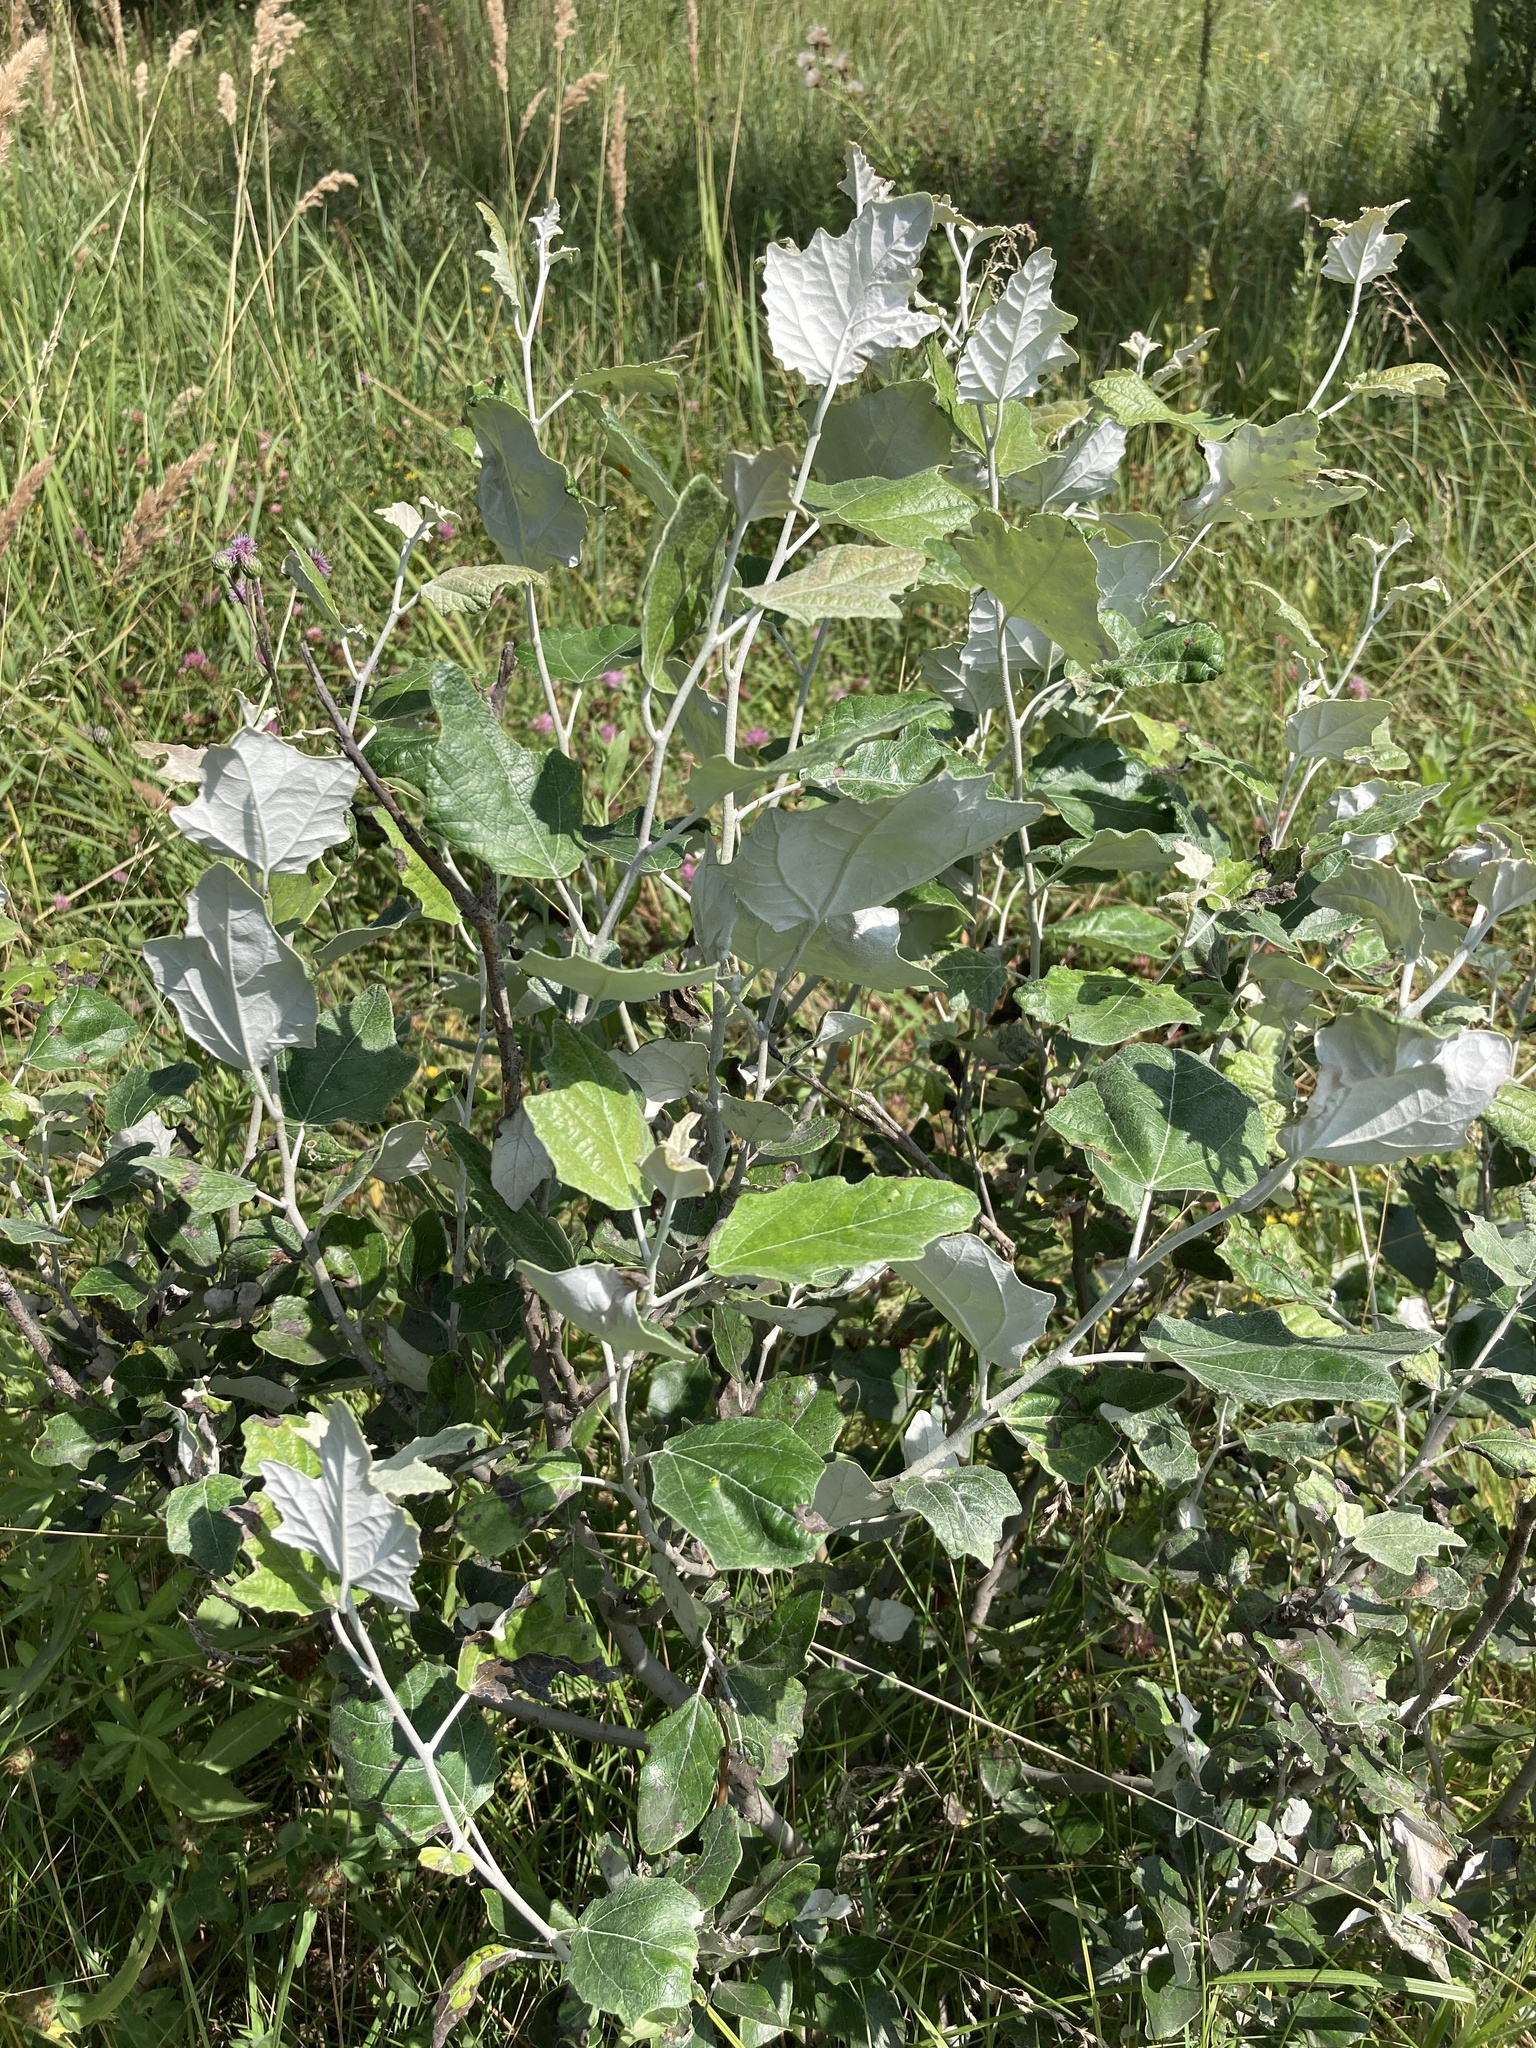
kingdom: Plantae
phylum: Tracheophyta
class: Magnoliopsida
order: Malpighiales
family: Salicaceae
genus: Populus
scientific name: Populus alba
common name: White poplar
